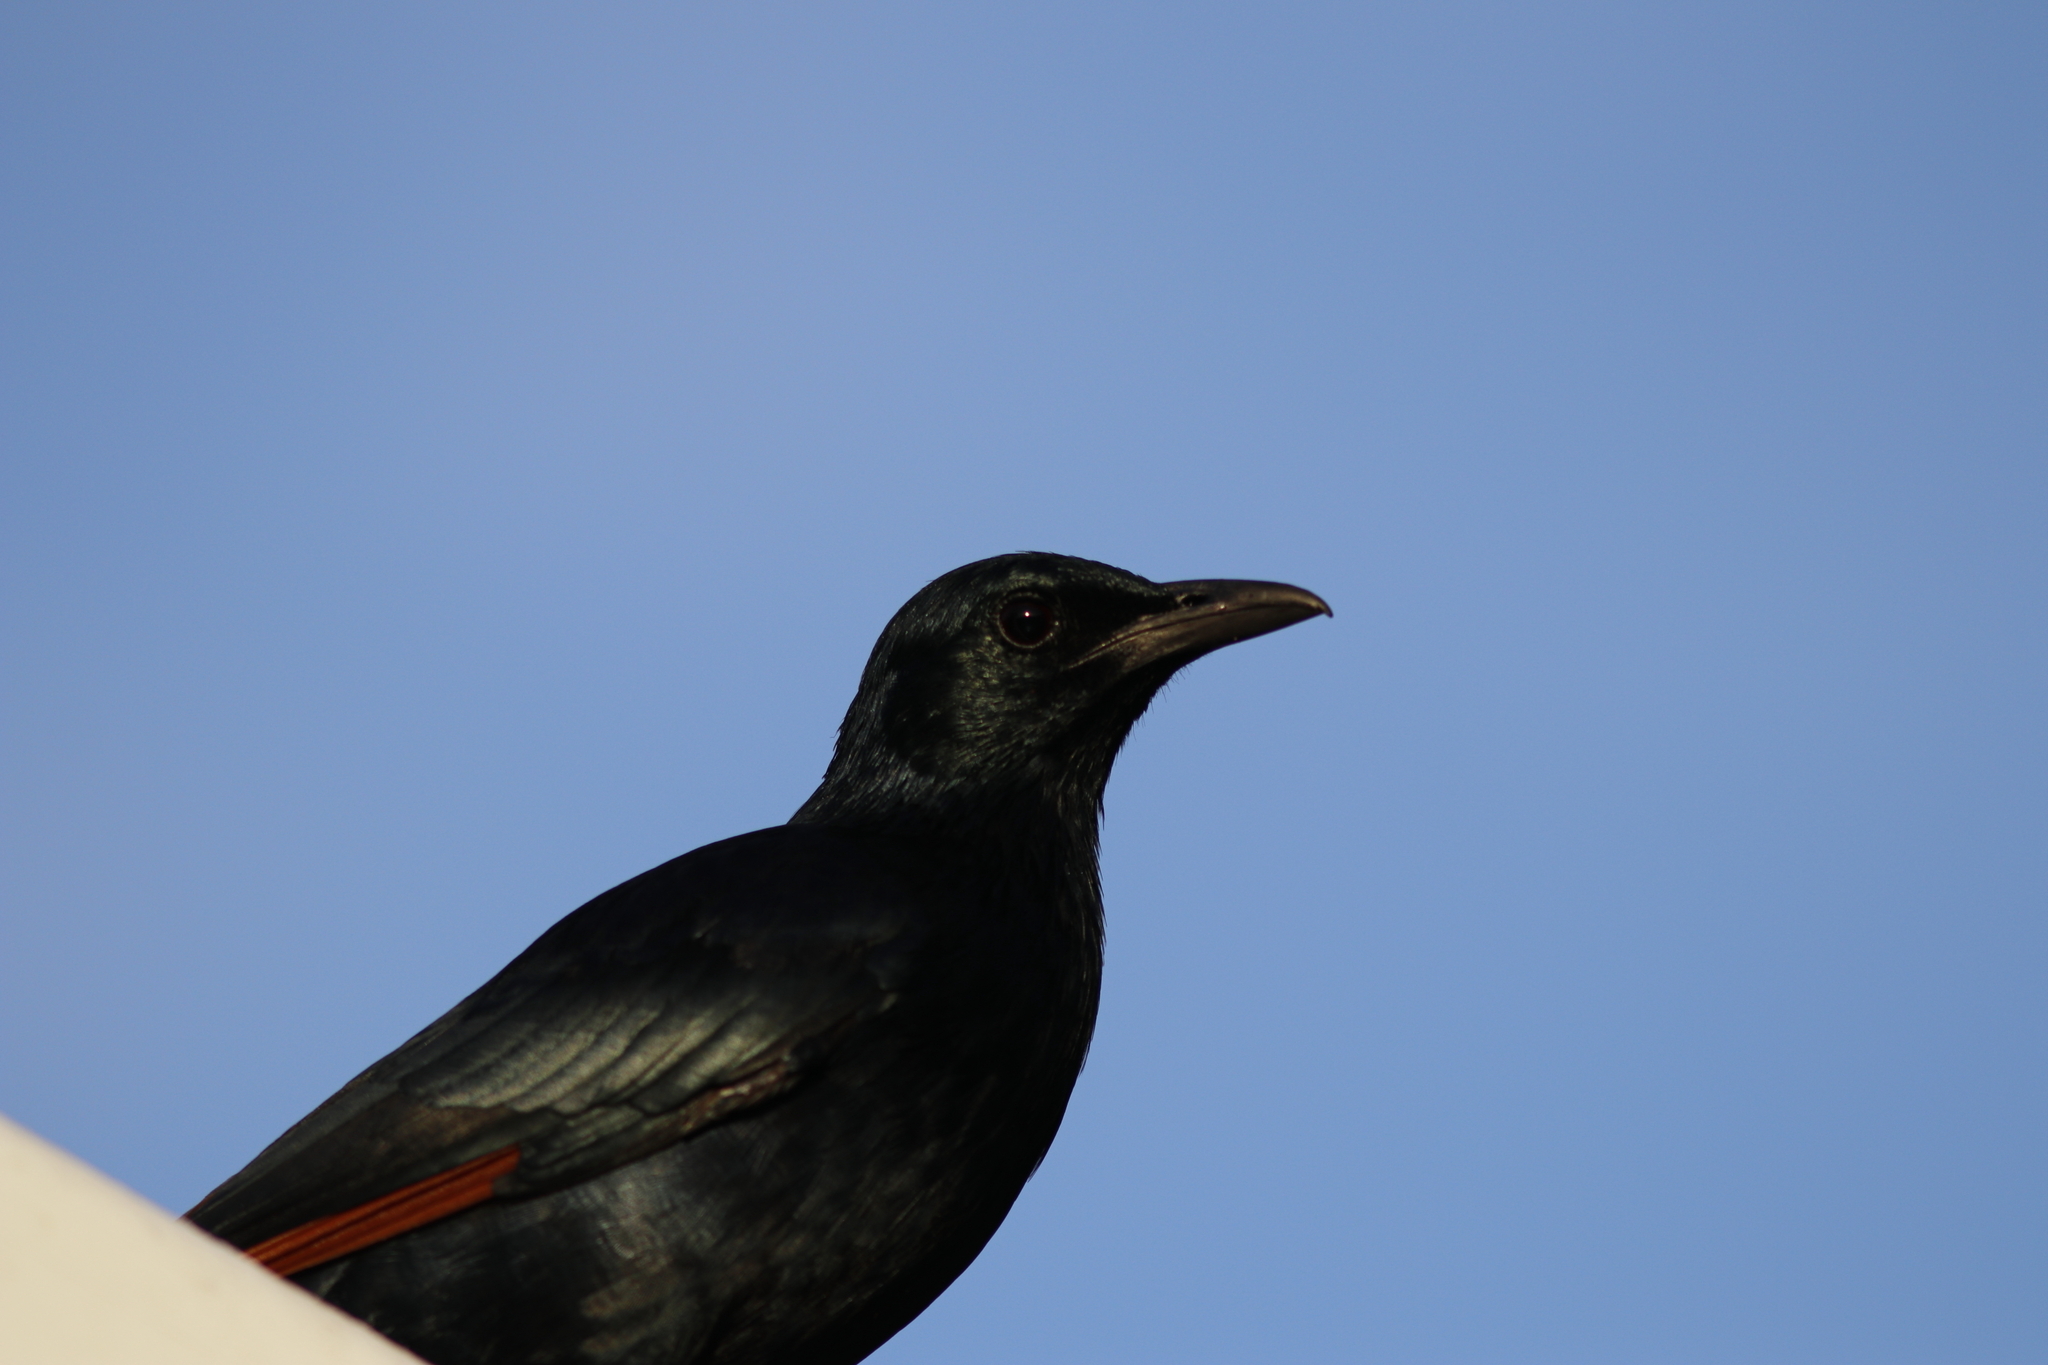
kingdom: Animalia
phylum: Chordata
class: Aves
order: Passeriformes
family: Sturnidae
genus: Onychognathus
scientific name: Onychognathus morio
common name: Red-winged starling
